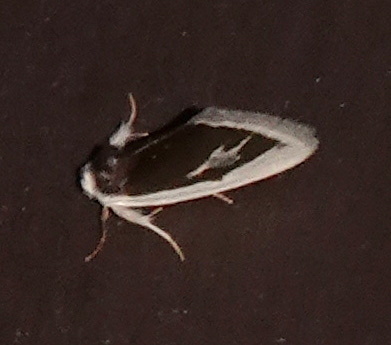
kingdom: Animalia
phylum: Arthropoda
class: Insecta
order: Lepidoptera
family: Noctuidae
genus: Neumoegenia
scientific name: Neumoegenia poetica
